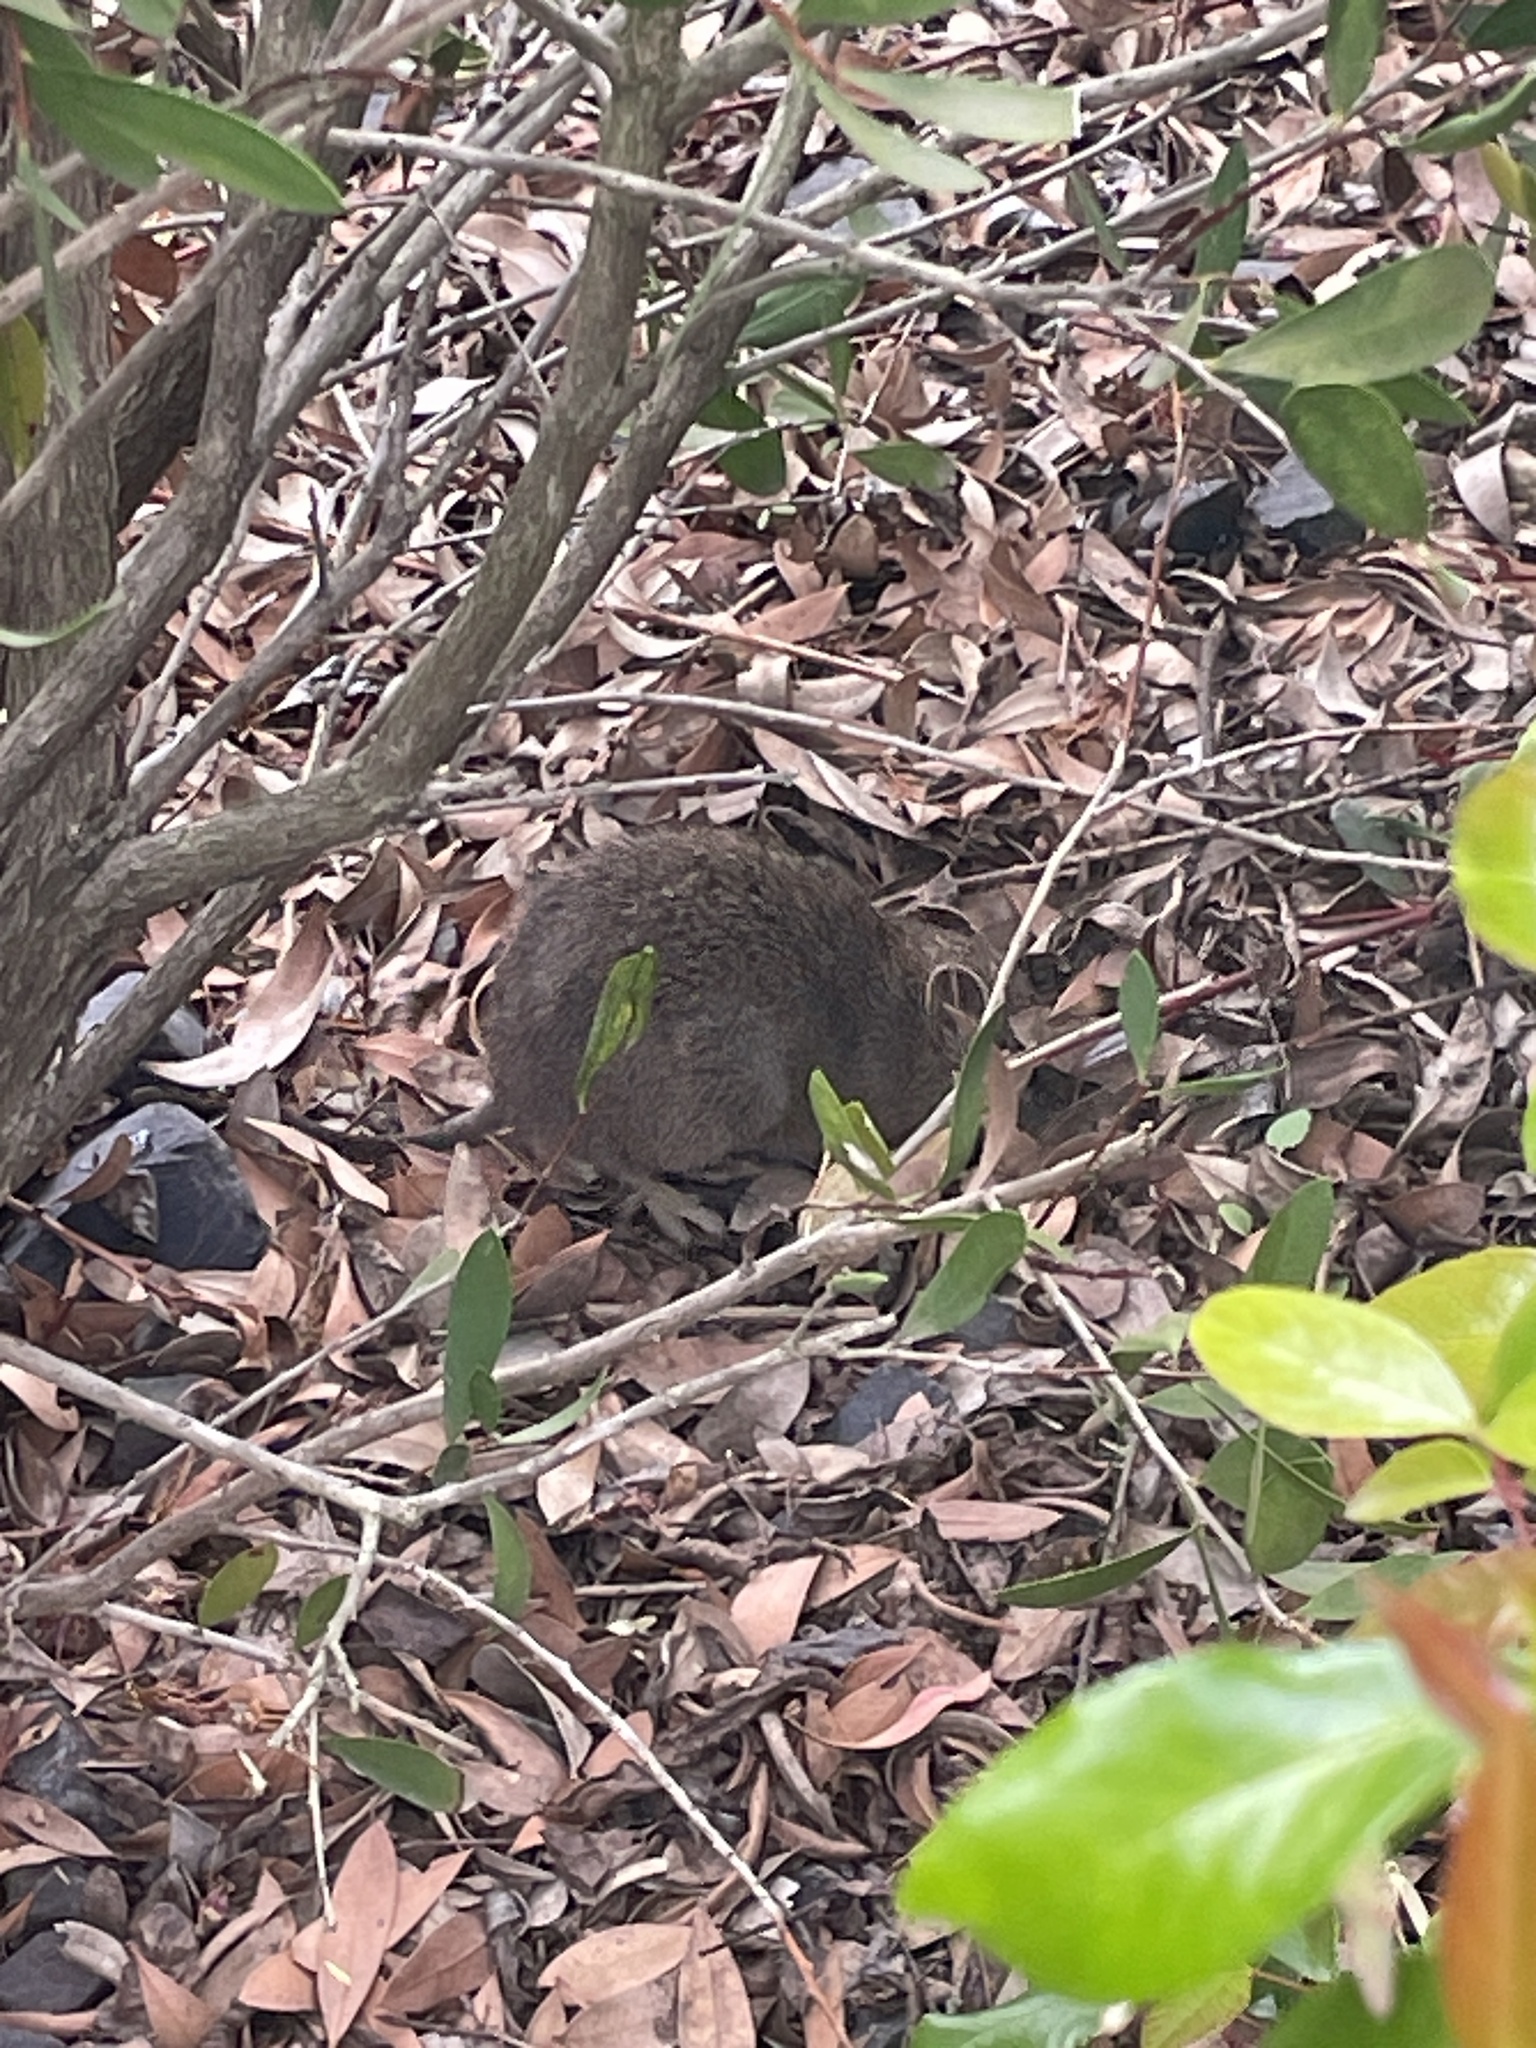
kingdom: Animalia
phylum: Chordata
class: Mammalia
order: Peramelemorphia
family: Peramelidae
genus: Isoodon
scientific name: Isoodon obesulus
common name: Southern brown bandicoot
